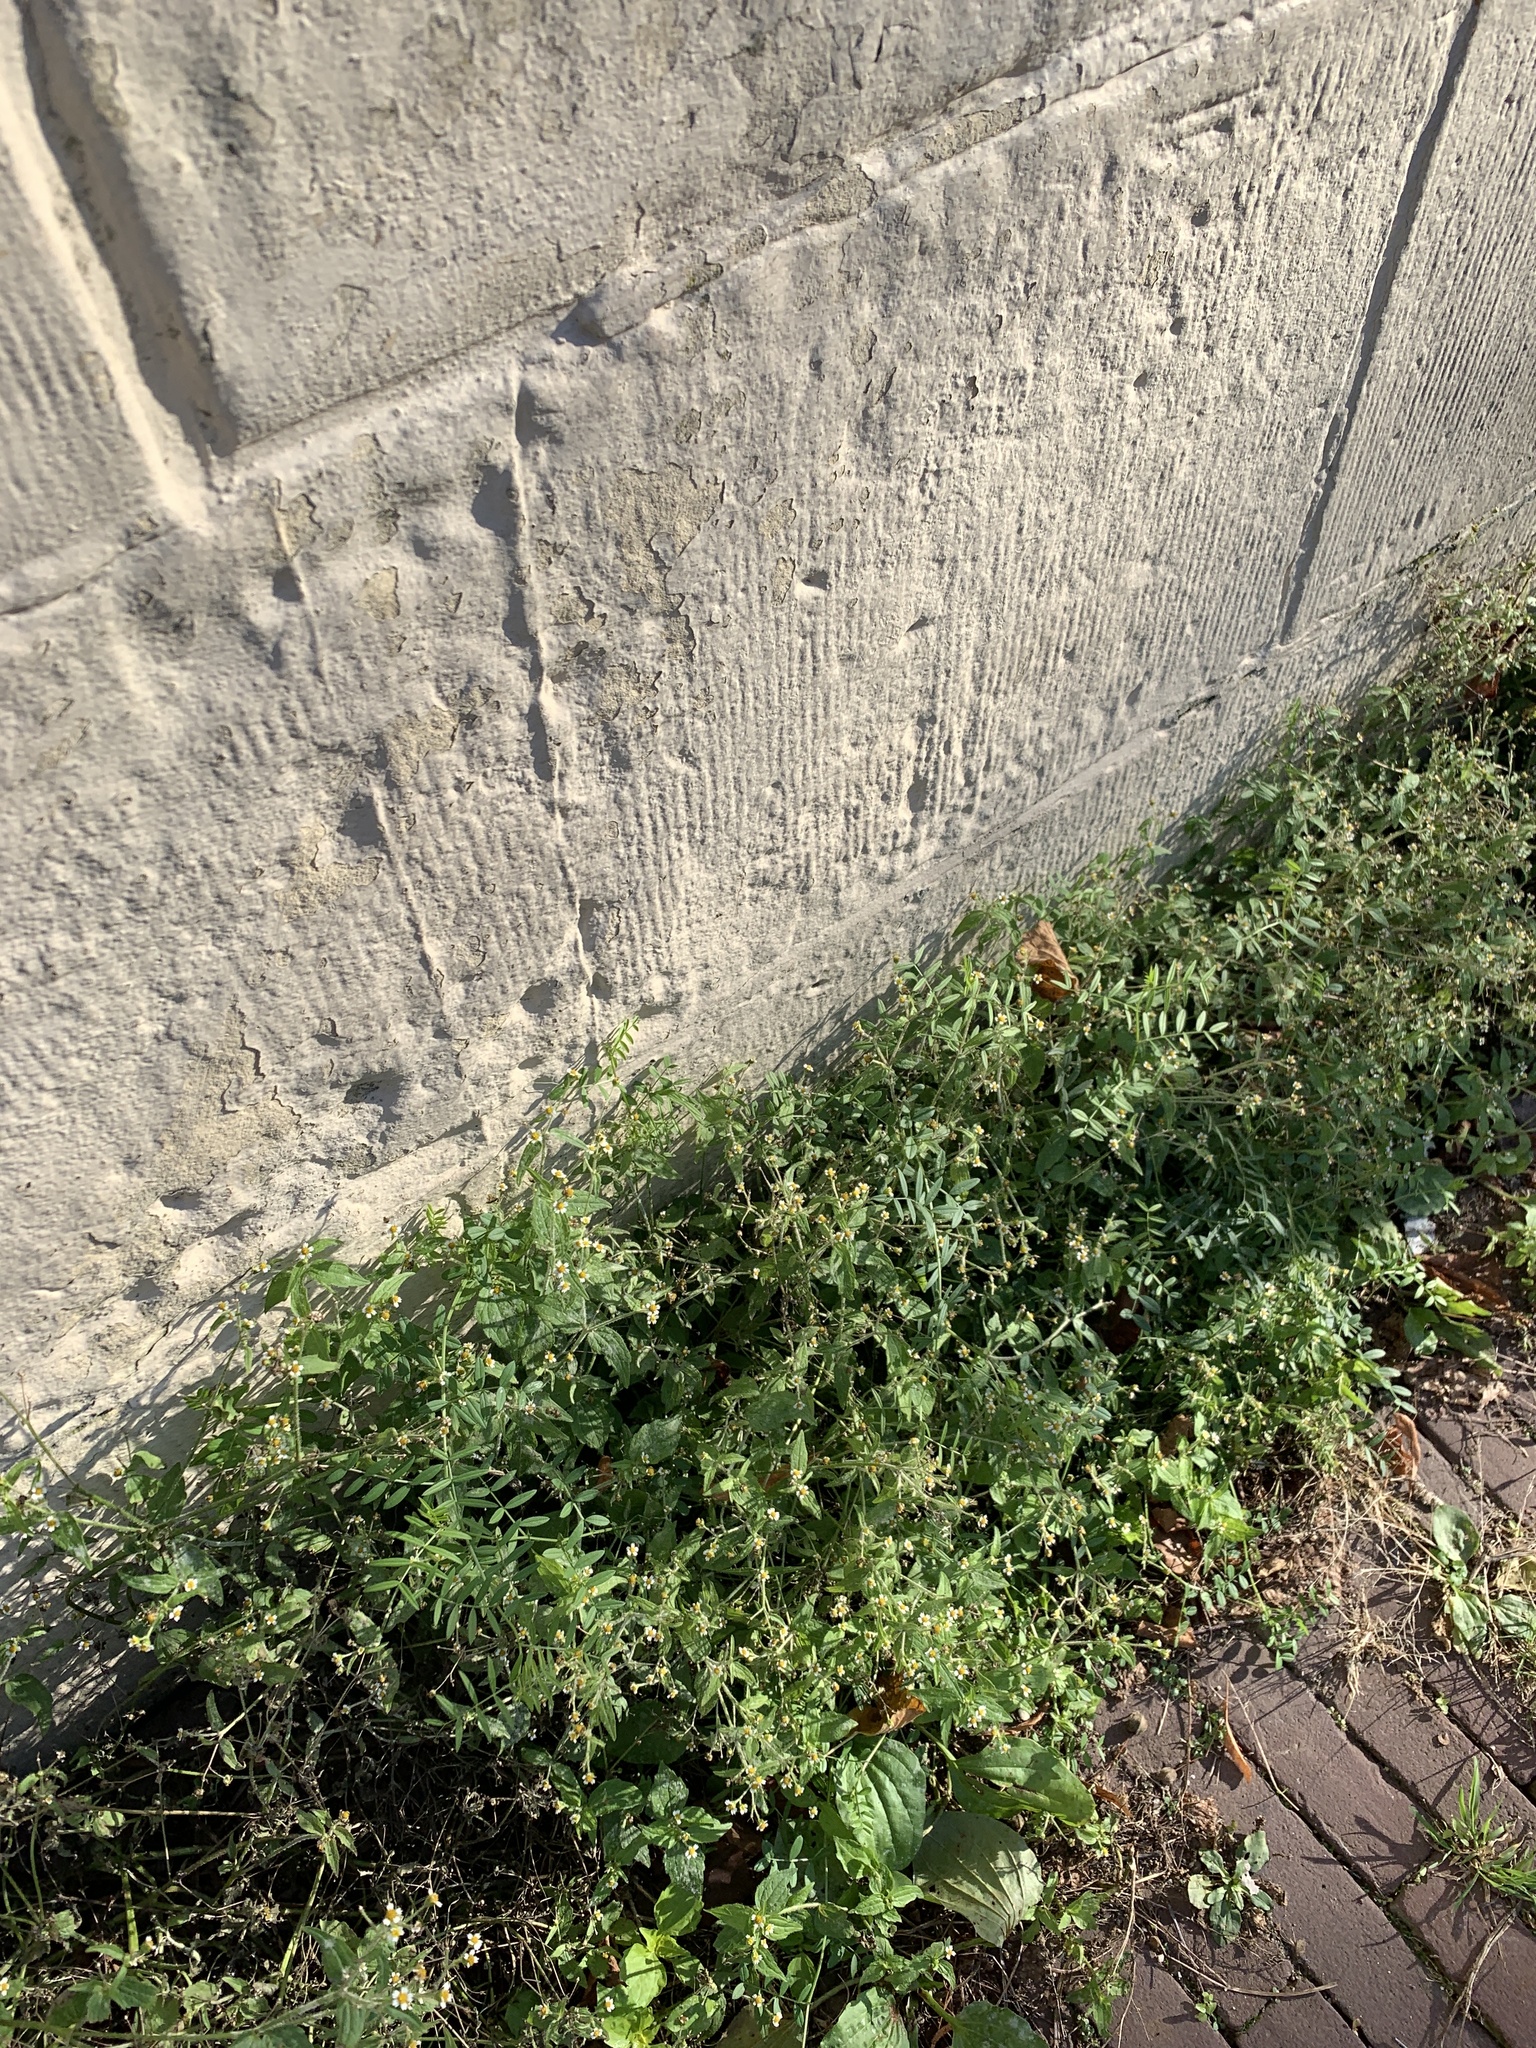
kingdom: Plantae
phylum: Tracheophyta
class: Magnoliopsida
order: Asterales
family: Asteraceae
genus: Galinsoga
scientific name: Galinsoga quadriradiata
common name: Shaggy soldier
